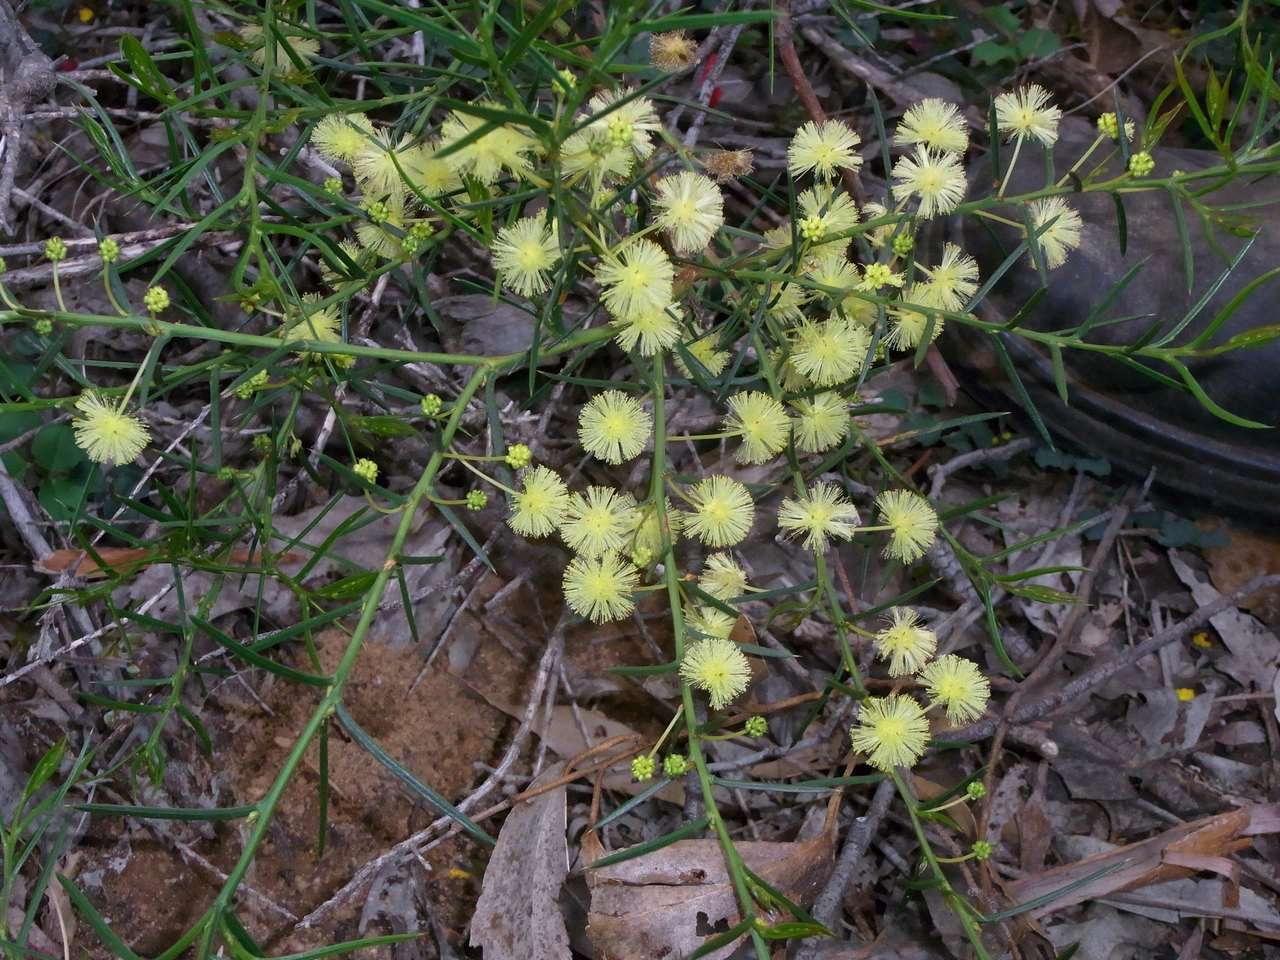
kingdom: Plantae
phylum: Tracheophyta
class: Magnoliopsida
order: Fabales
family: Fabaceae
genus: Acacia
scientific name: Acacia genistifolia
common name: Early wattle
